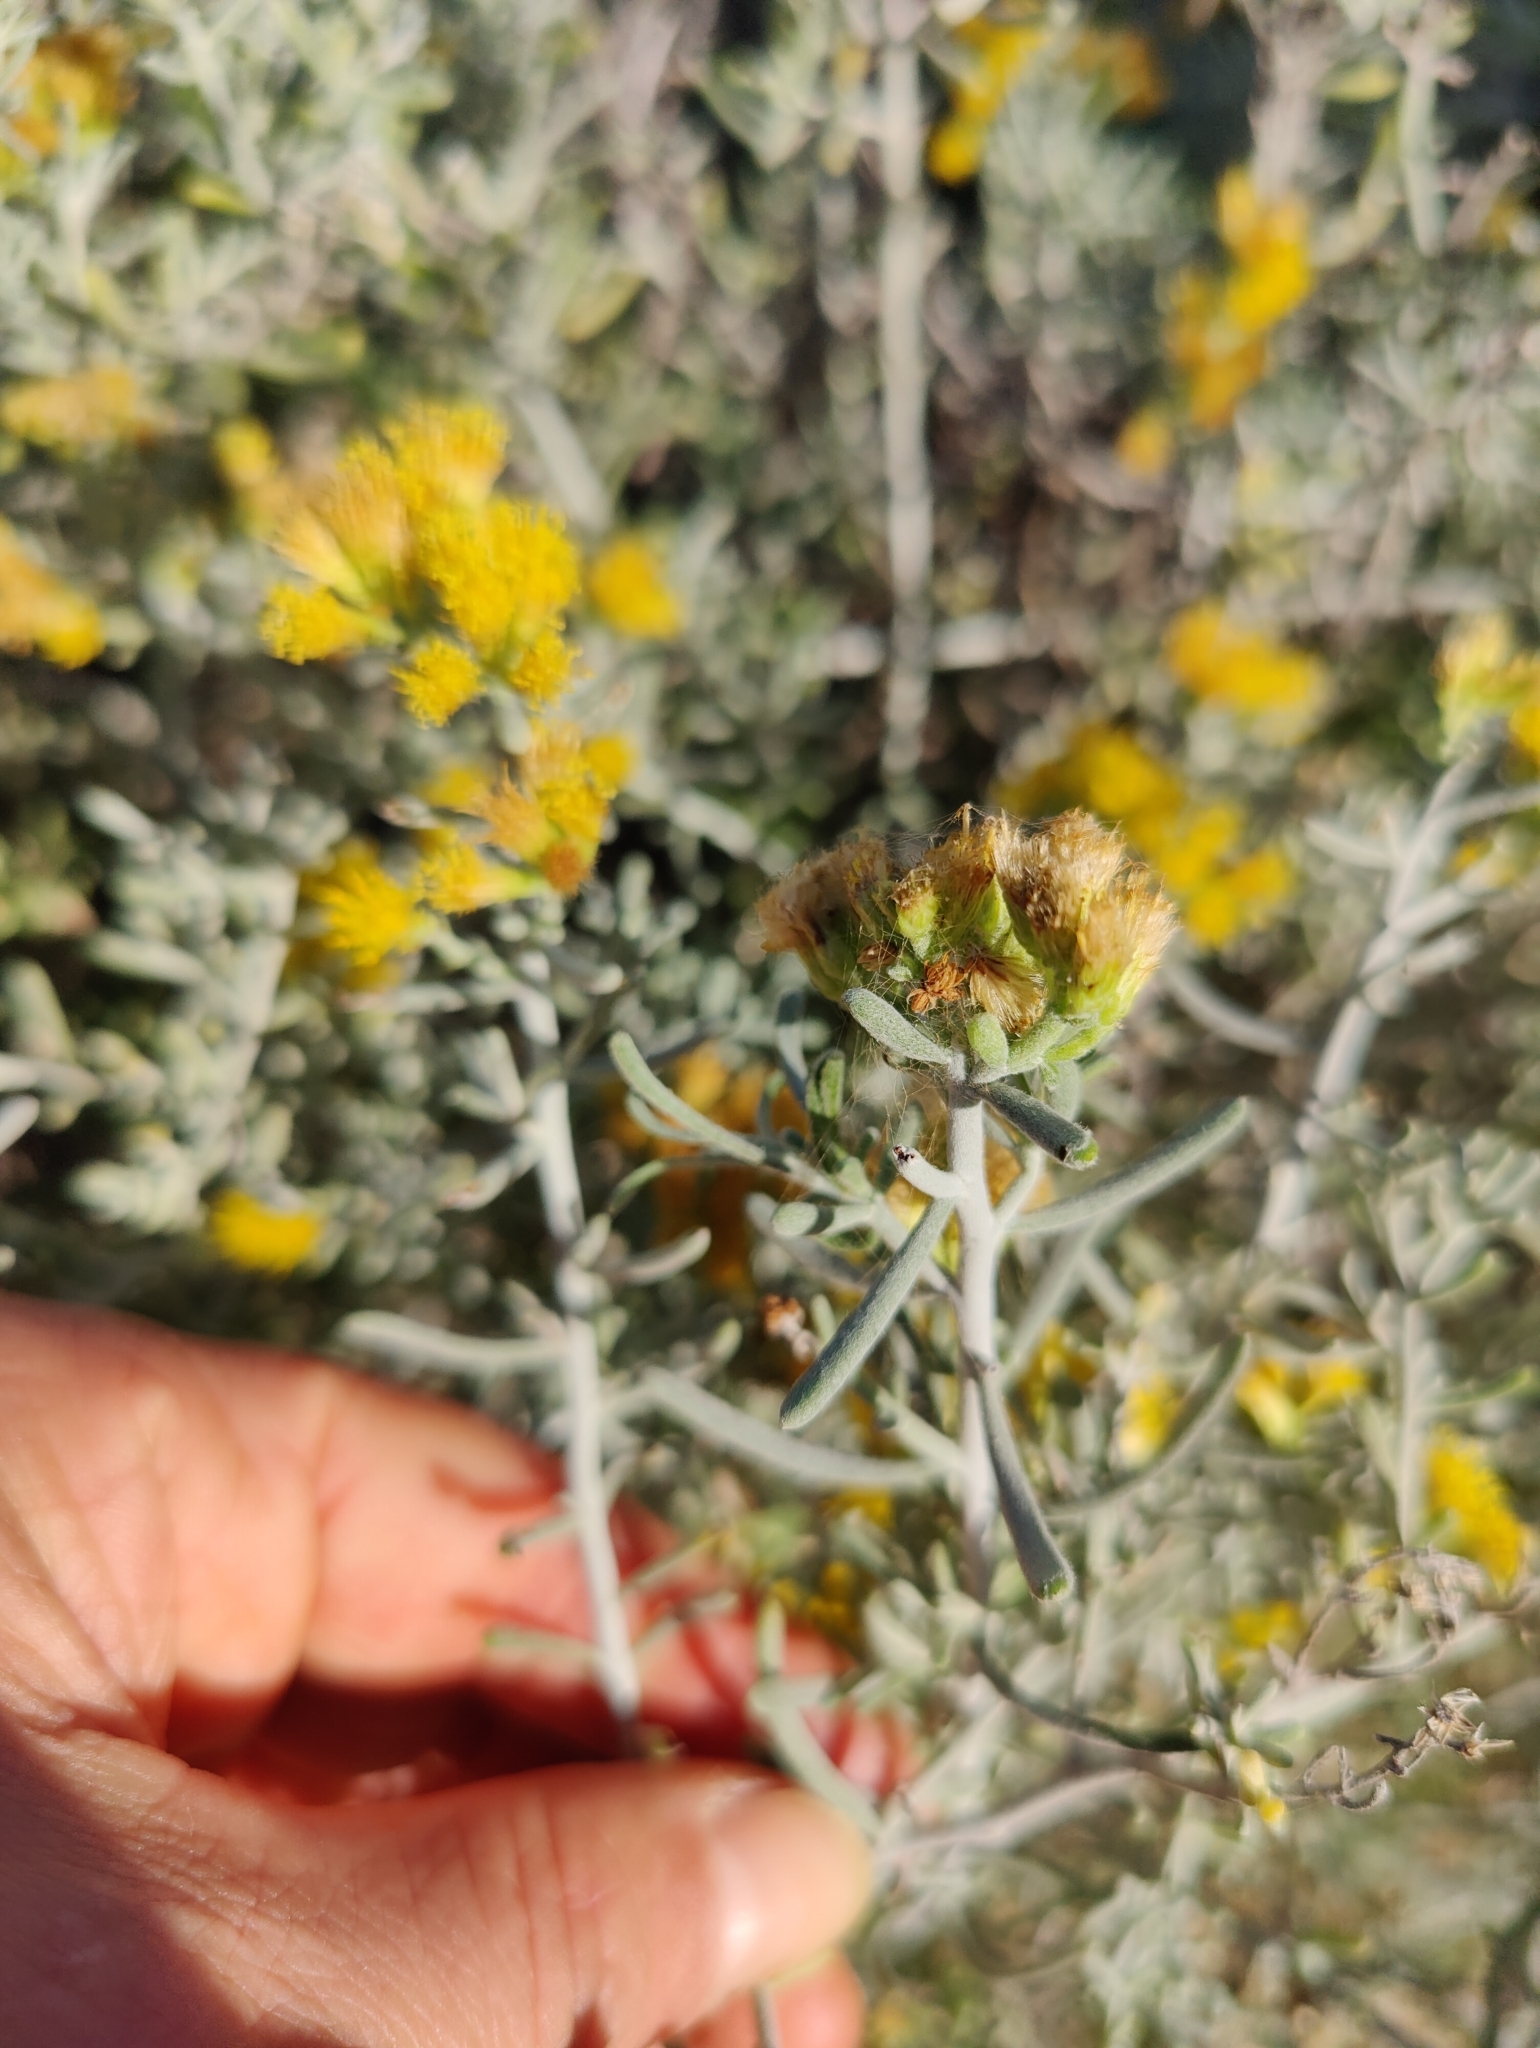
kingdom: Plantae
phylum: Tracheophyta
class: Magnoliopsida
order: Asterales
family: Asteraceae
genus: Schizogyne
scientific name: Schizogyne sericea
